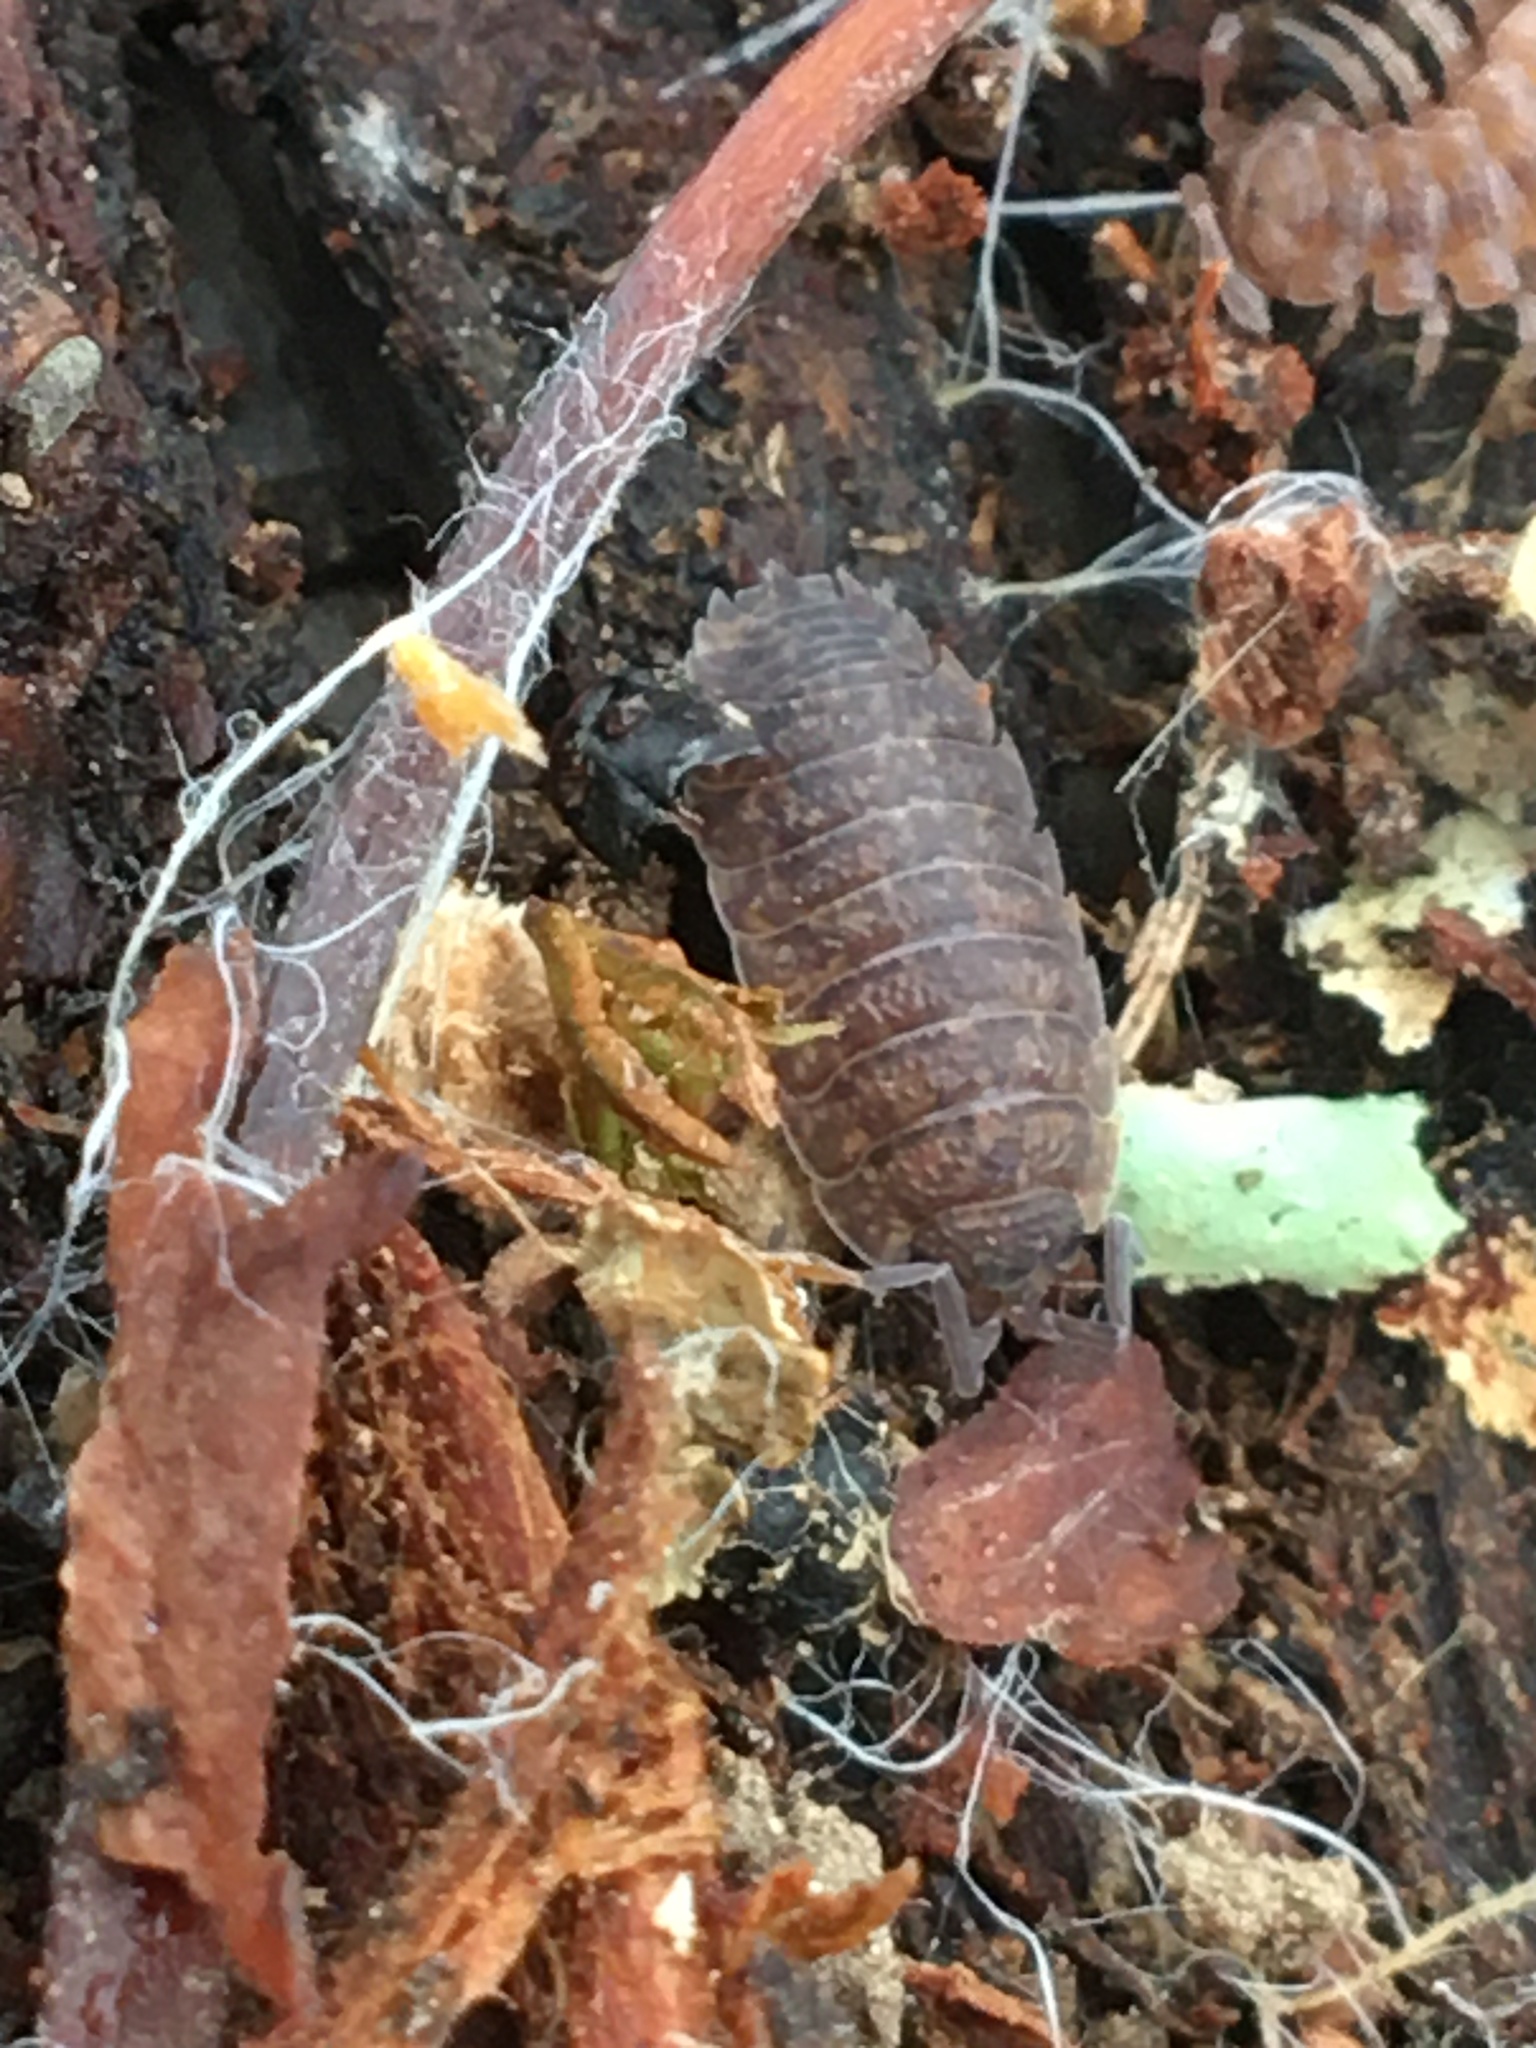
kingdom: Animalia
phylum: Arthropoda
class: Malacostraca
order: Isopoda
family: Porcellionidae
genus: Porcellio
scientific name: Porcellio scaber
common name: Common rough woodlouse
